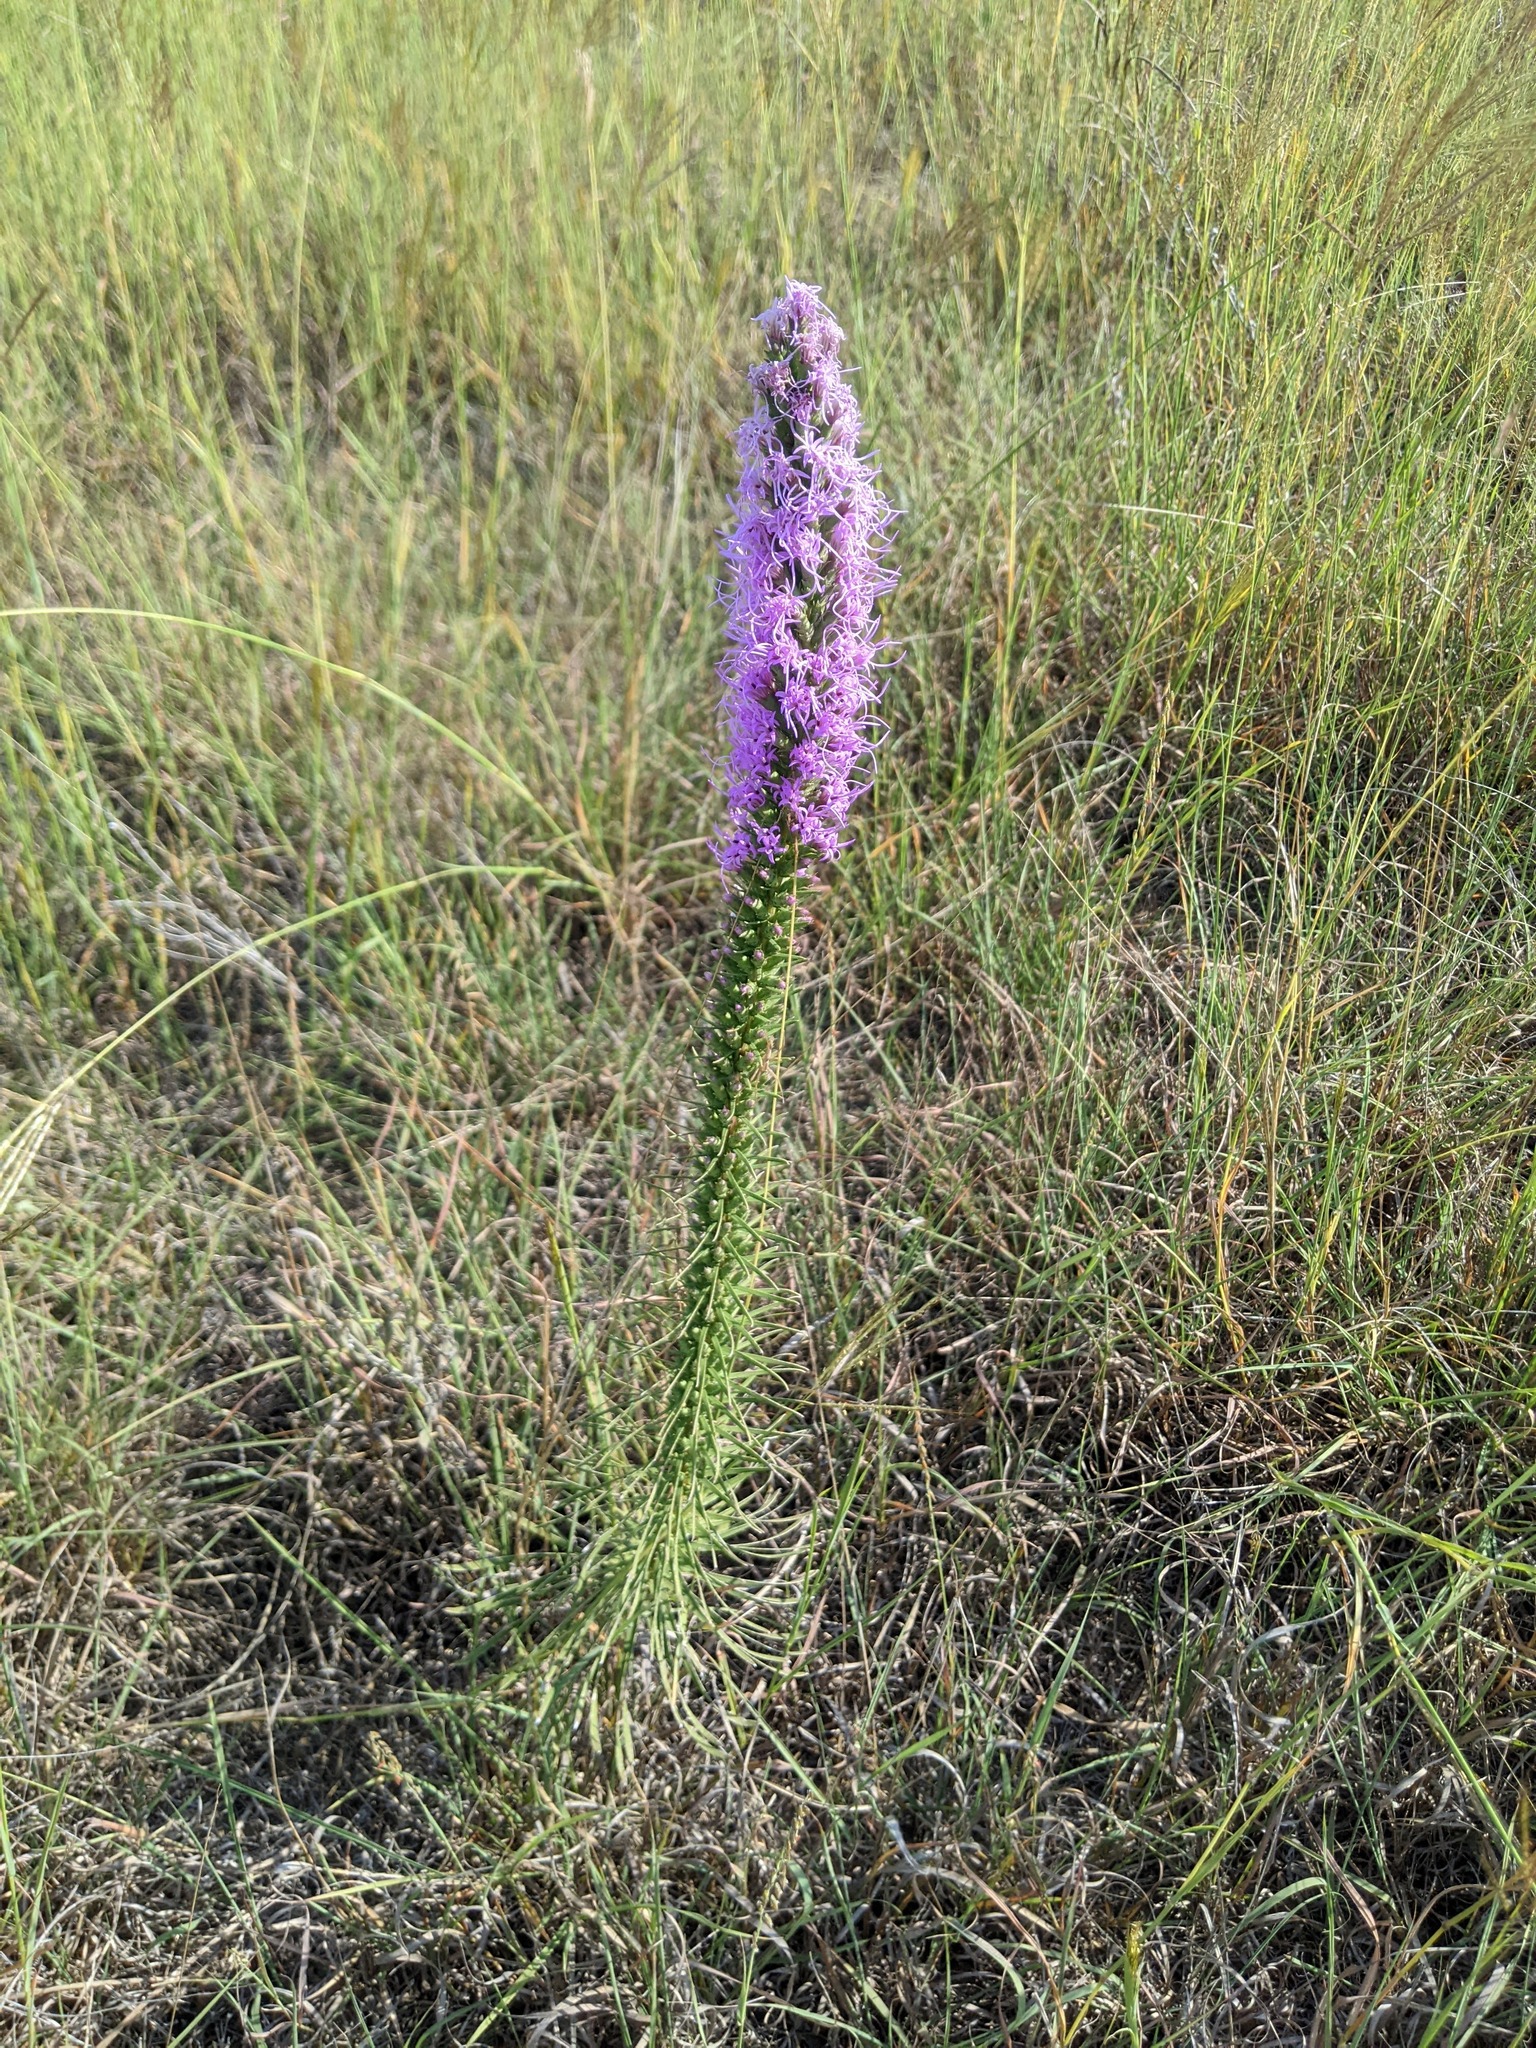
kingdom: Plantae
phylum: Tracheophyta
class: Magnoliopsida
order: Asterales
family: Asteraceae
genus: Liatris
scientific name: Liatris punctata
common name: Dotted gayfeather
